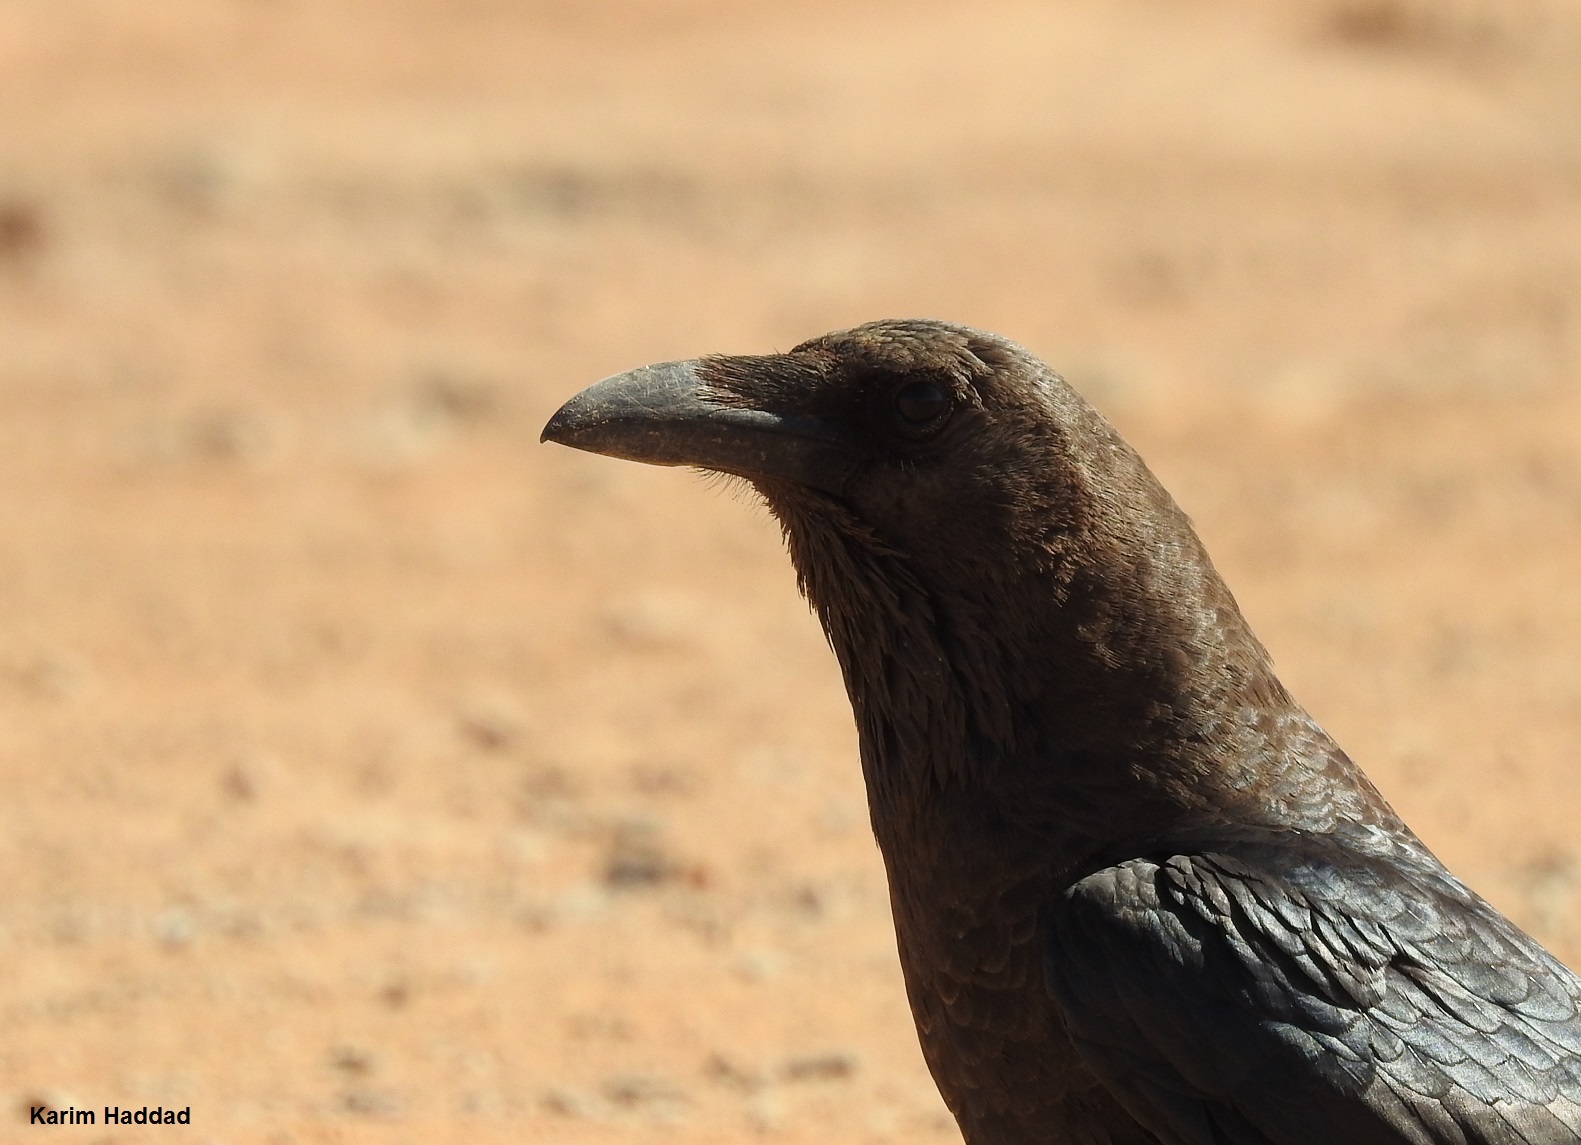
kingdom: Animalia
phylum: Chordata
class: Aves
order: Passeriformes
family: Corvidae
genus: Corvus
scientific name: Corvus ruficollis
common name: Brown-necked raven
